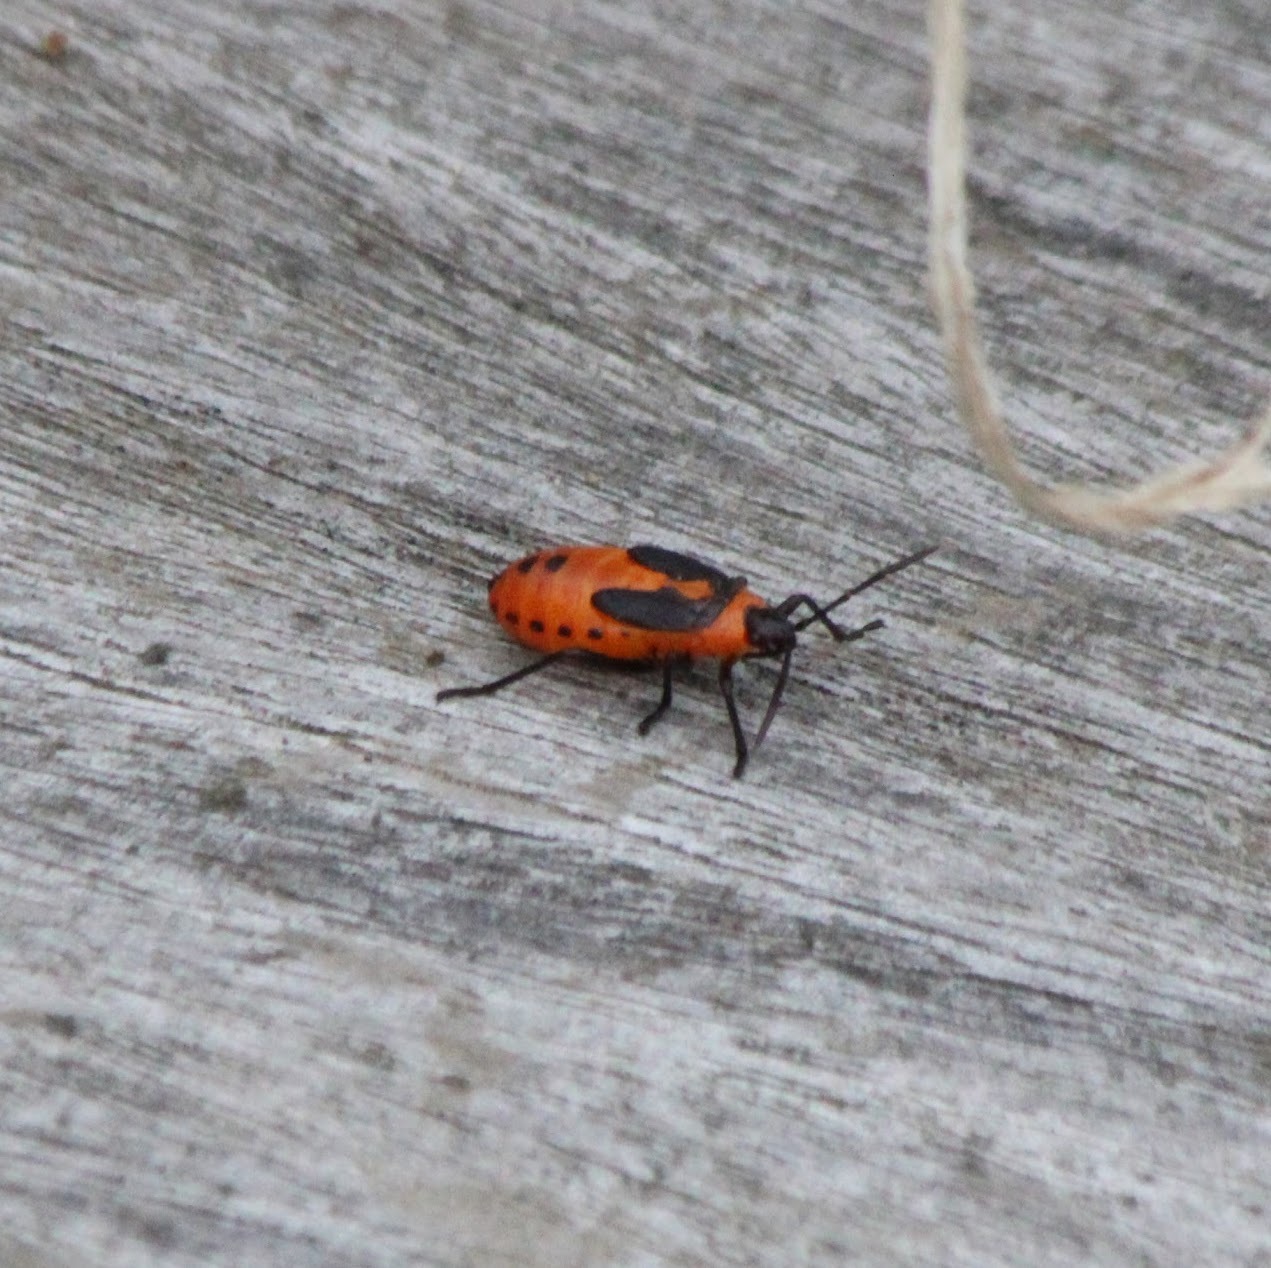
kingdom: Animalia
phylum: Arthropoda
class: Insecta
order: Hemiptera
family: Lygaeidae
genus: Oncopeltus
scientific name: Oncopeltus fasciatus
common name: Large milkweed bug
